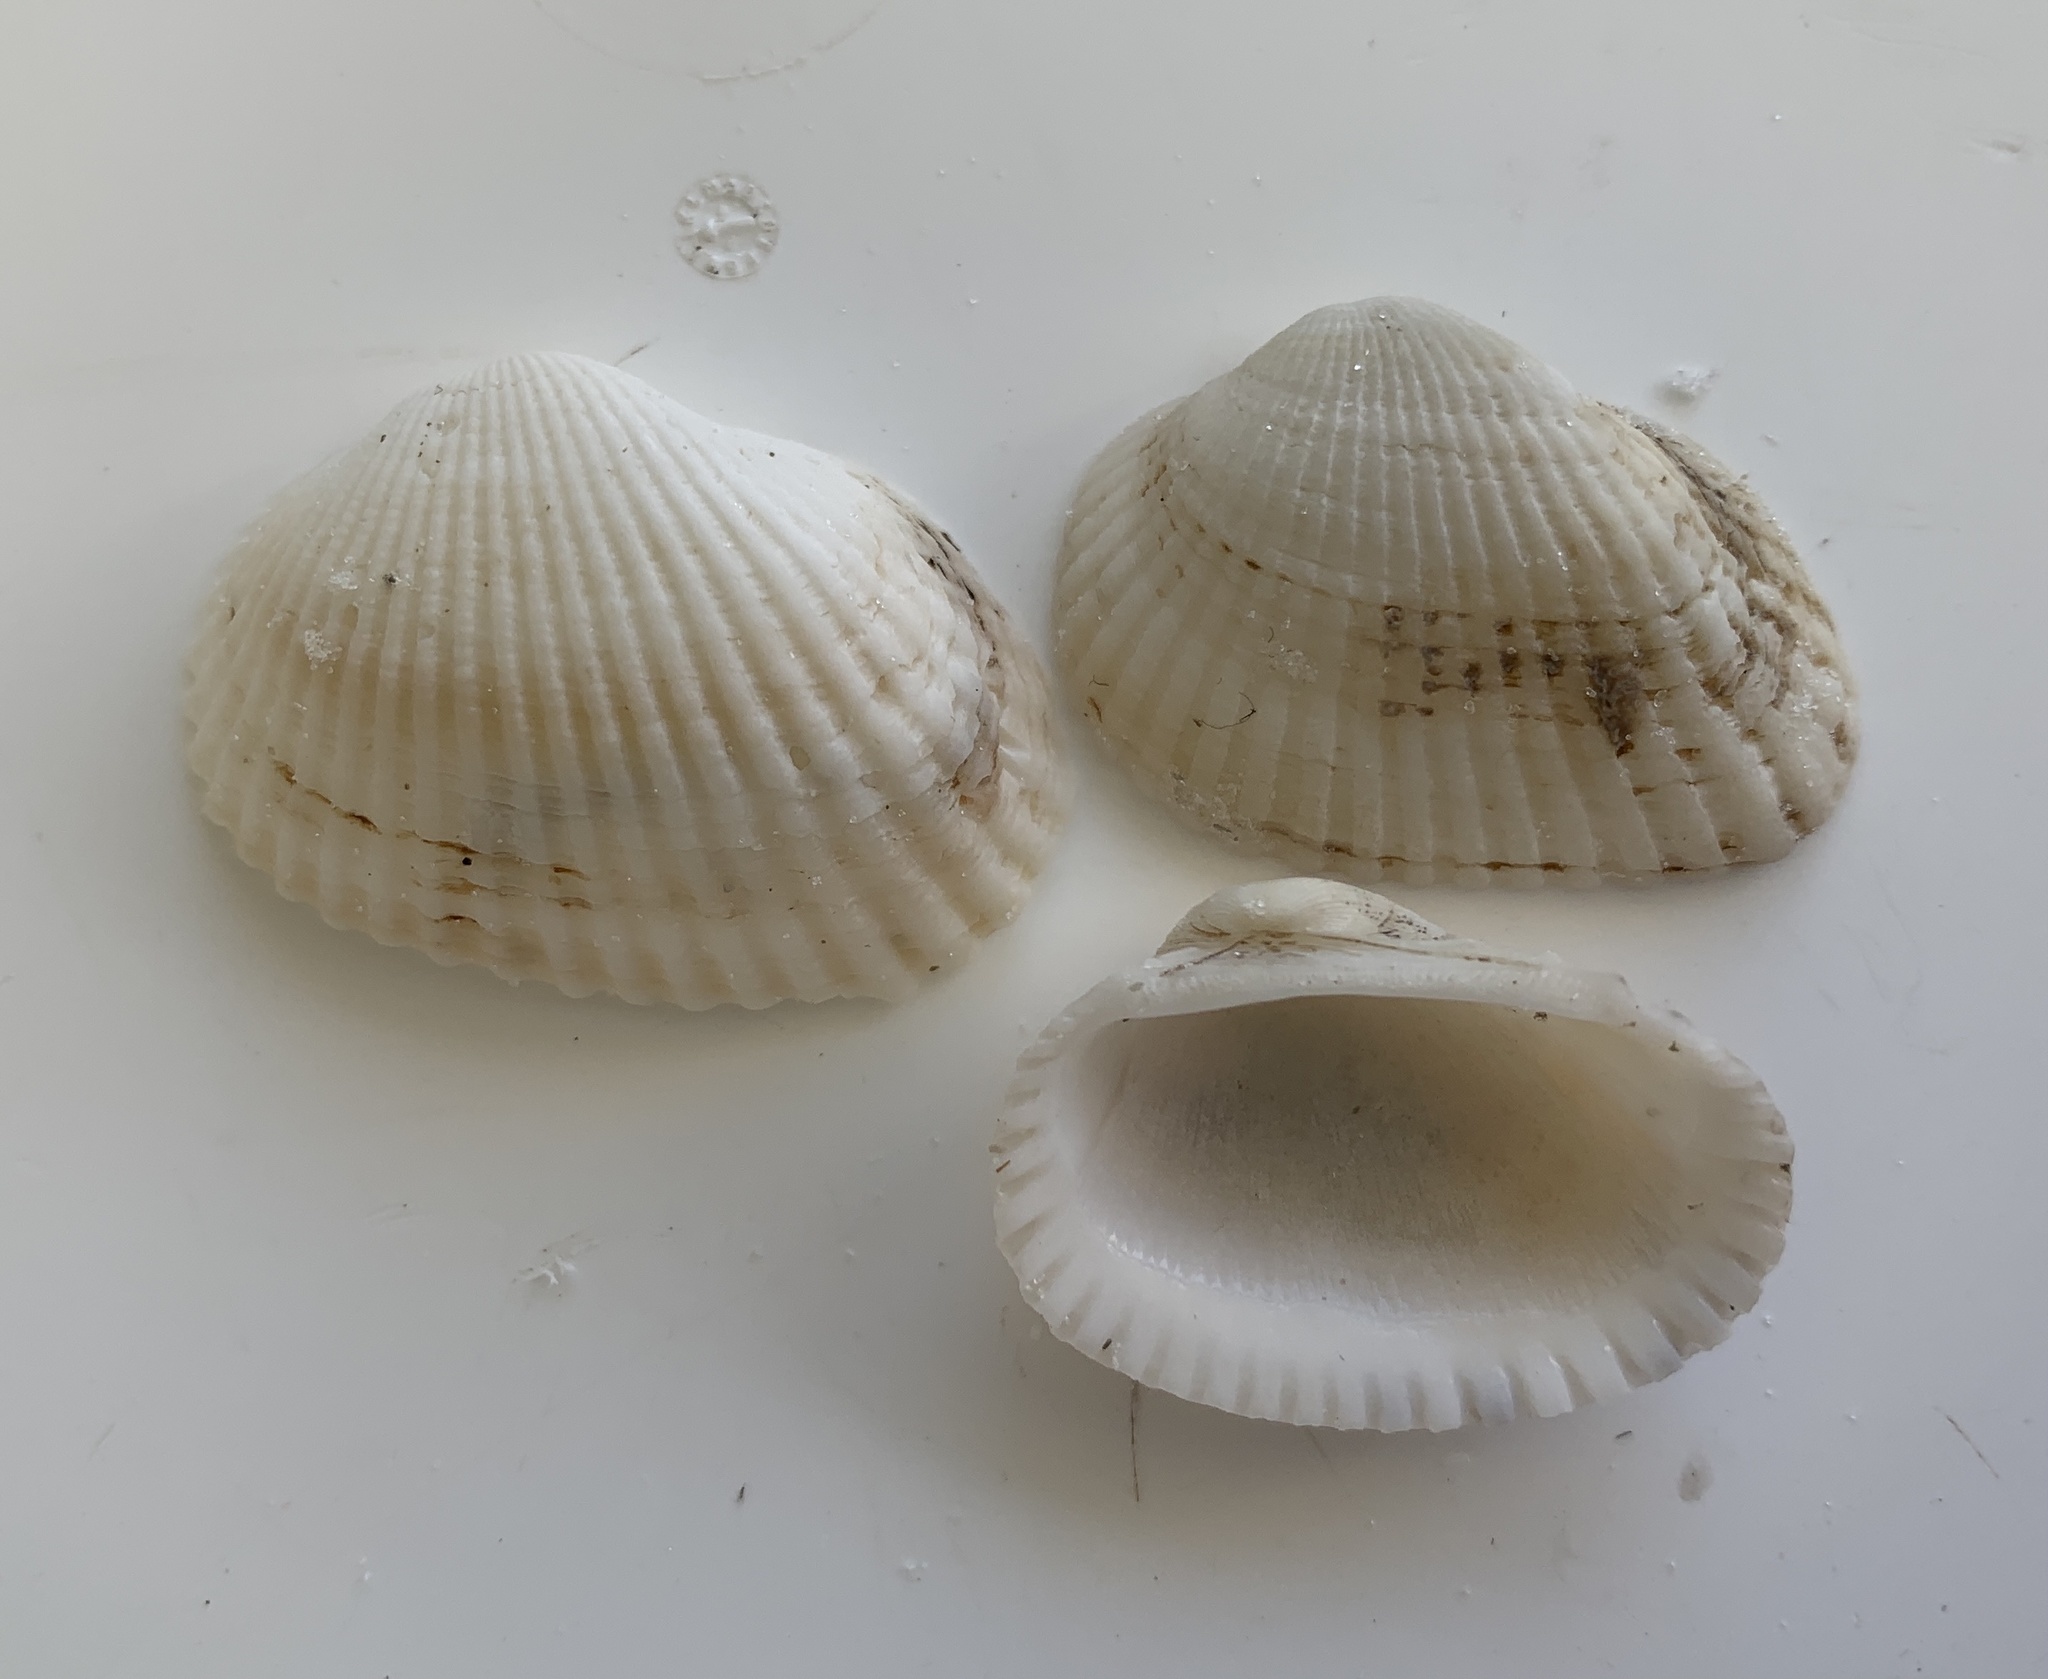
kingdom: Animalia
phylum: Mollusca
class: Bivalvia
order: Arcida
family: Arcidae
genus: Anadara
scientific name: Anadara transversa
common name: Transverse ark
